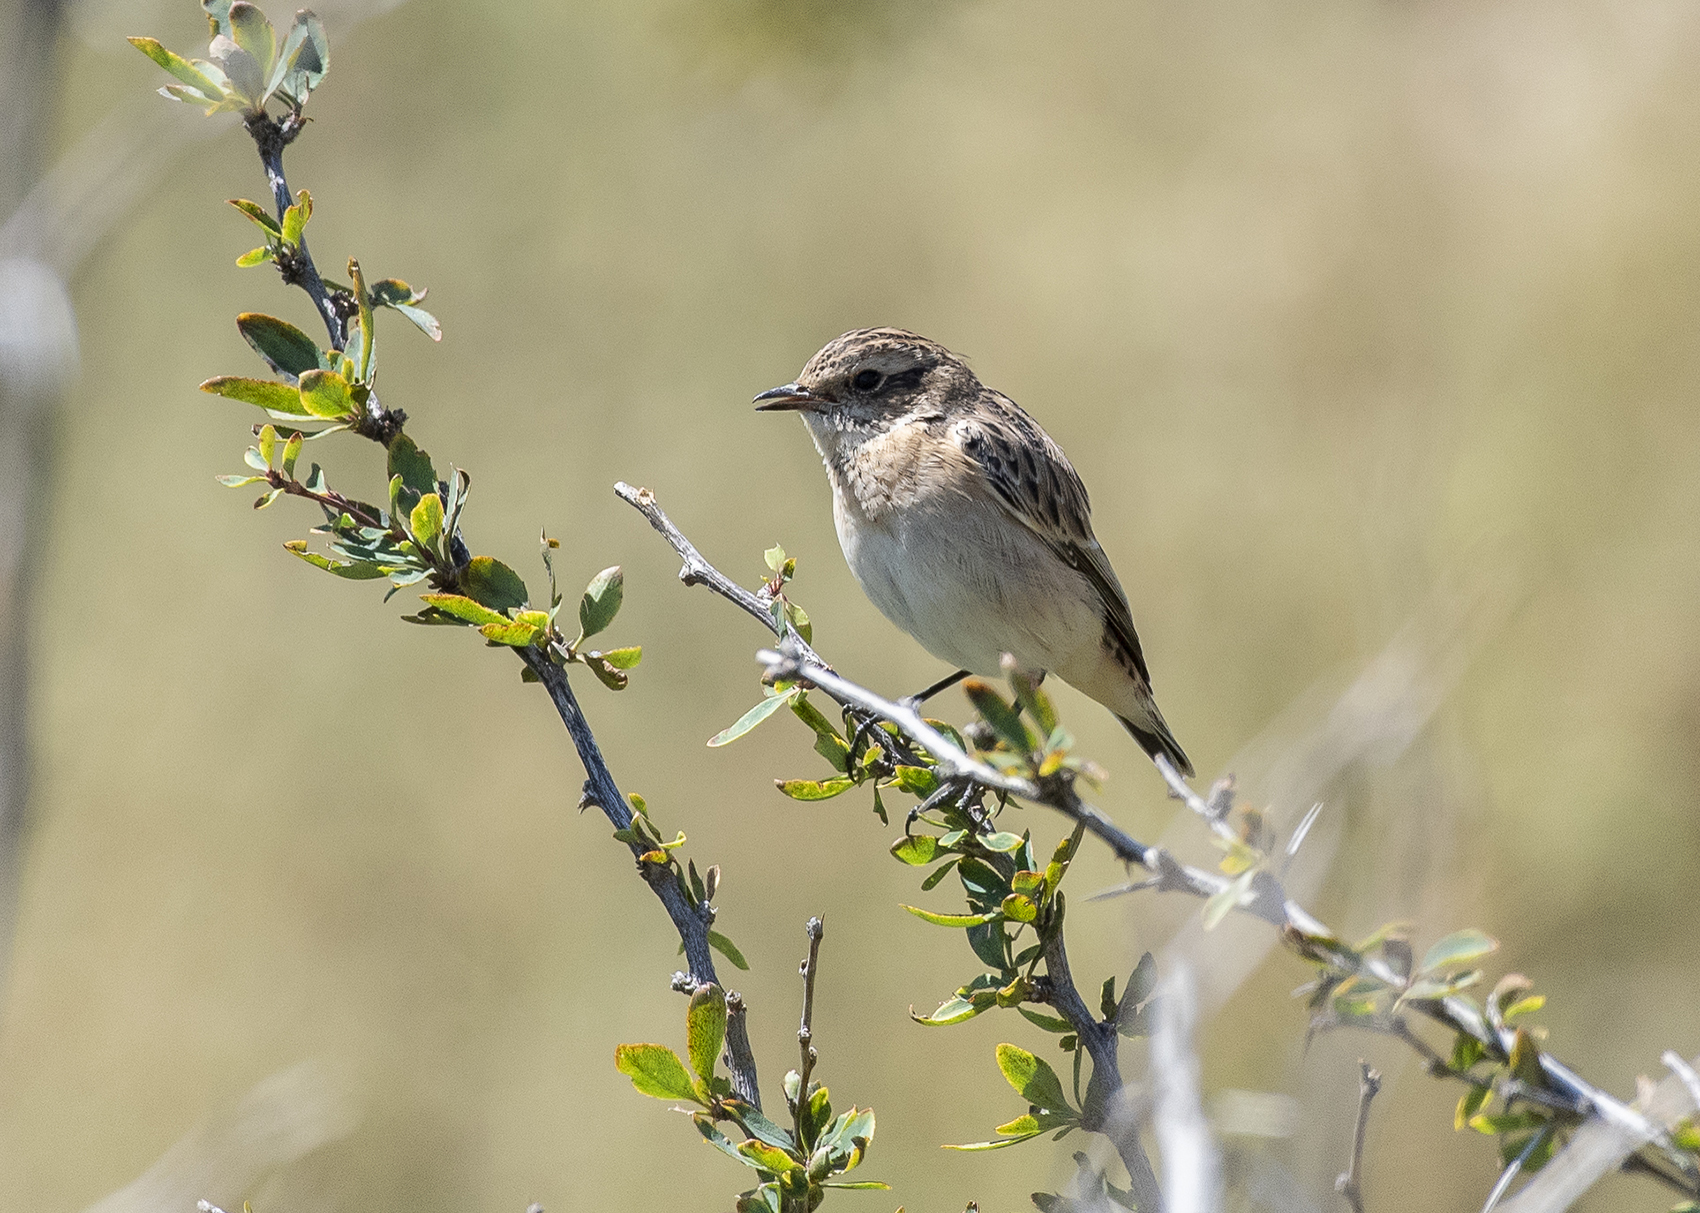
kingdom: Animalia
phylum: Chordata
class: Aves
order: Passeriformes
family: Muscicapidae
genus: Saxicola
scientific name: Saxicola rubicola
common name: European stonechat
